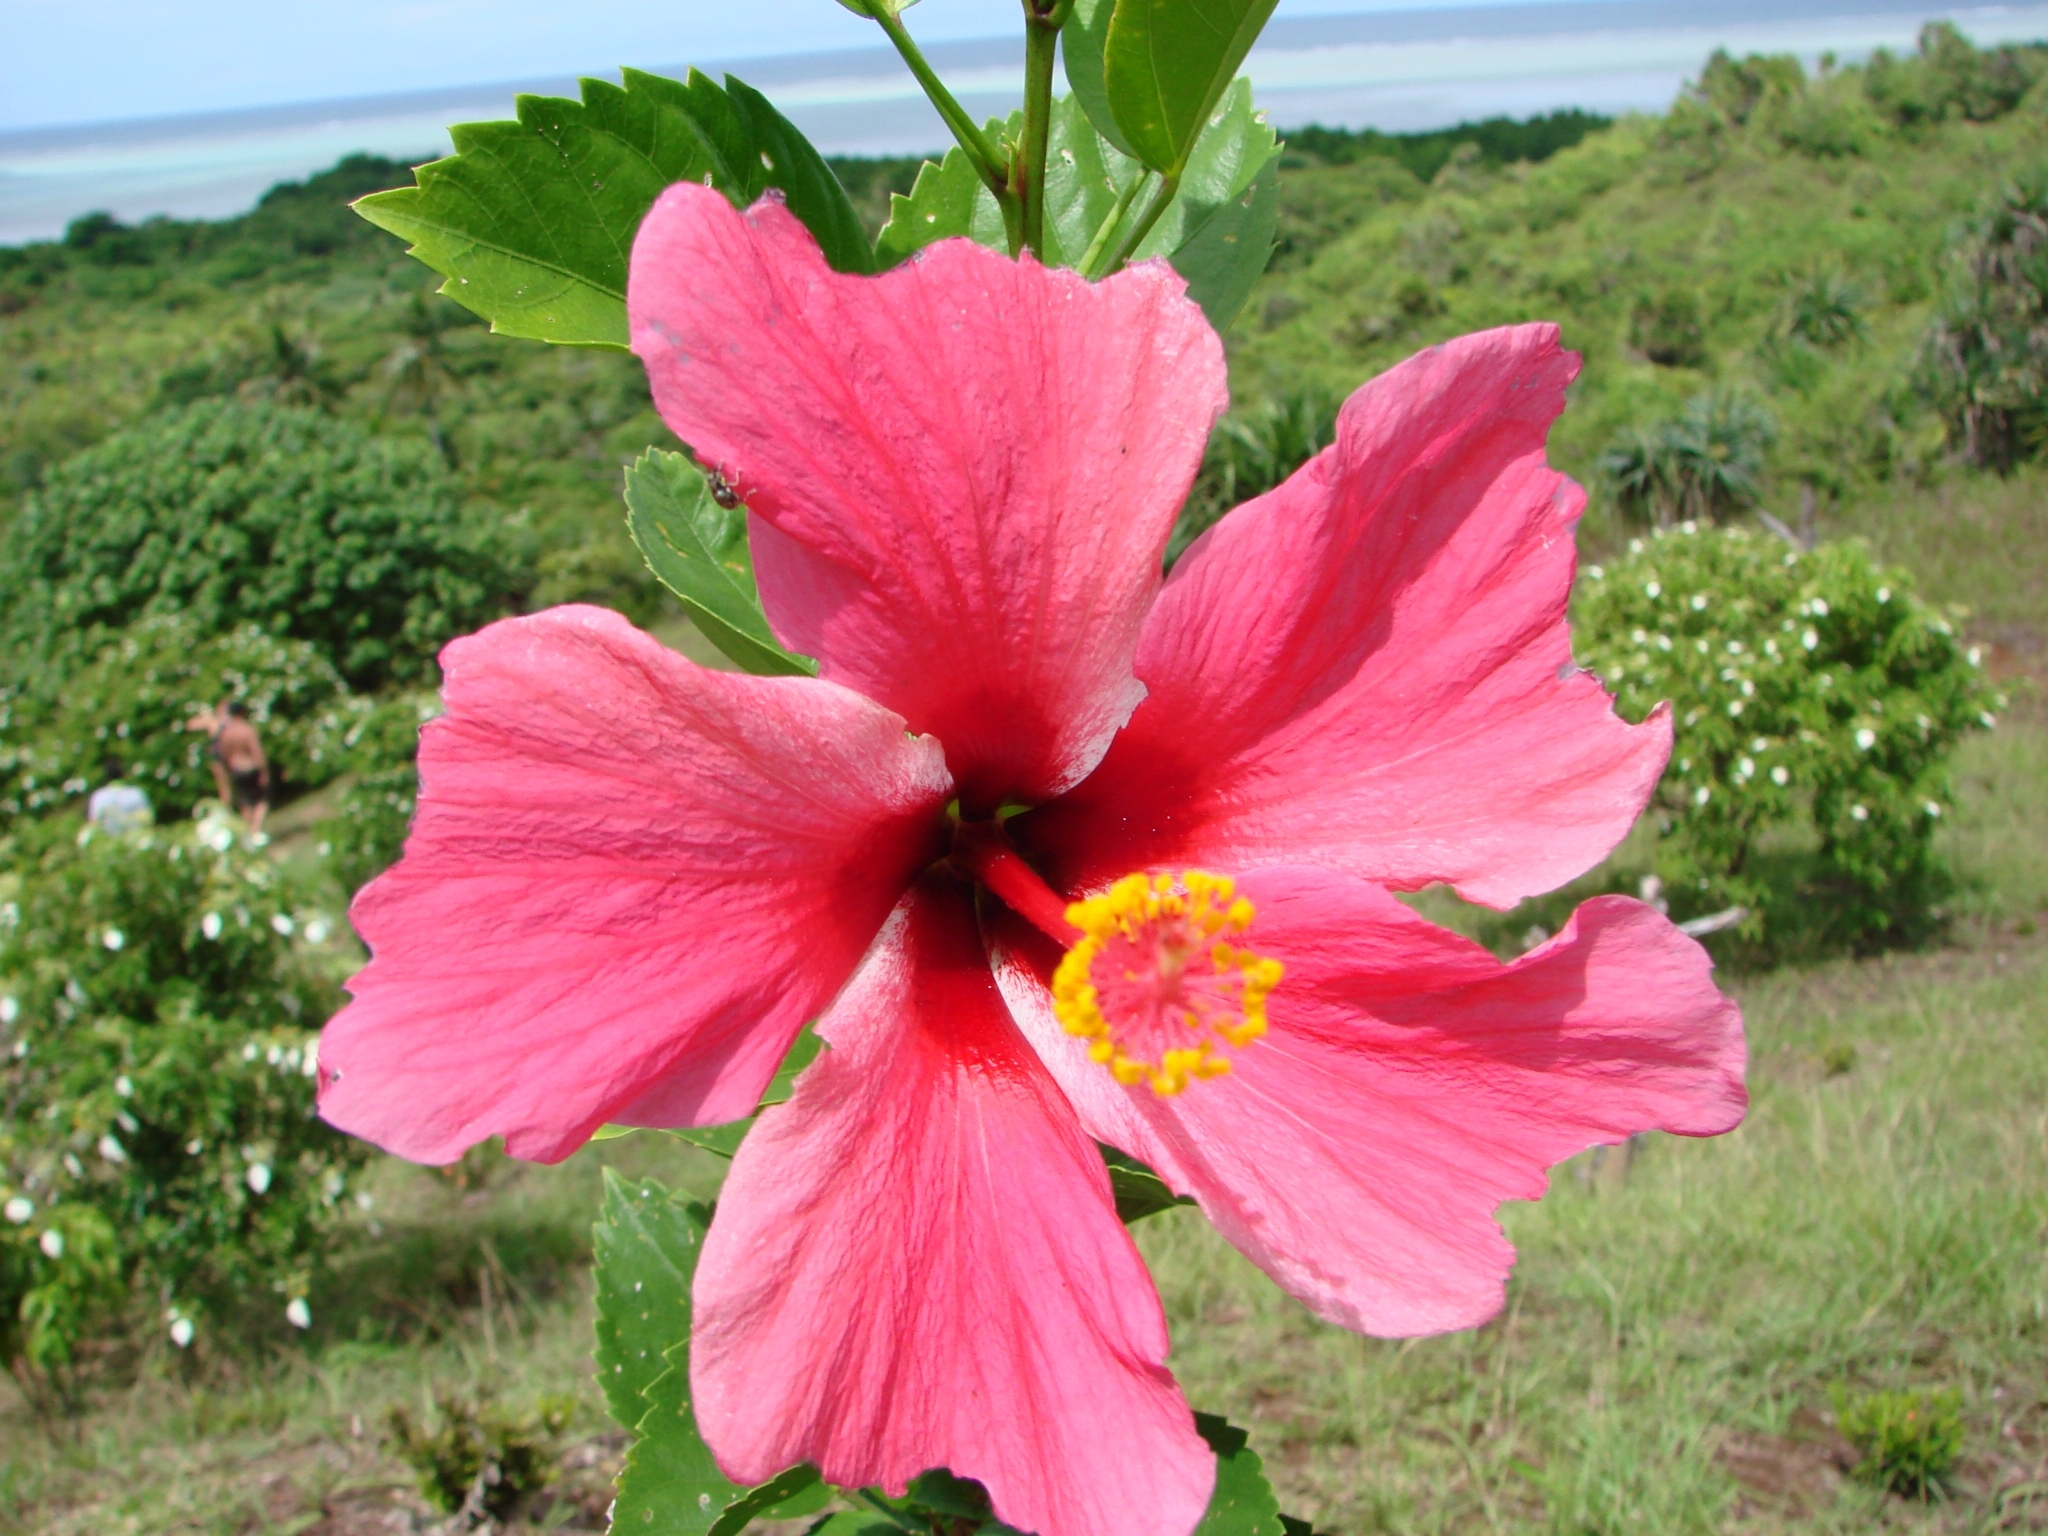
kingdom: Plantae
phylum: Tracheophyta
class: Magnoliopsida
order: Malvales
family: Malvaceae
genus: Hibiscus
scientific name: Hibiscus rosa-sinensis
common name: Hibiscus
